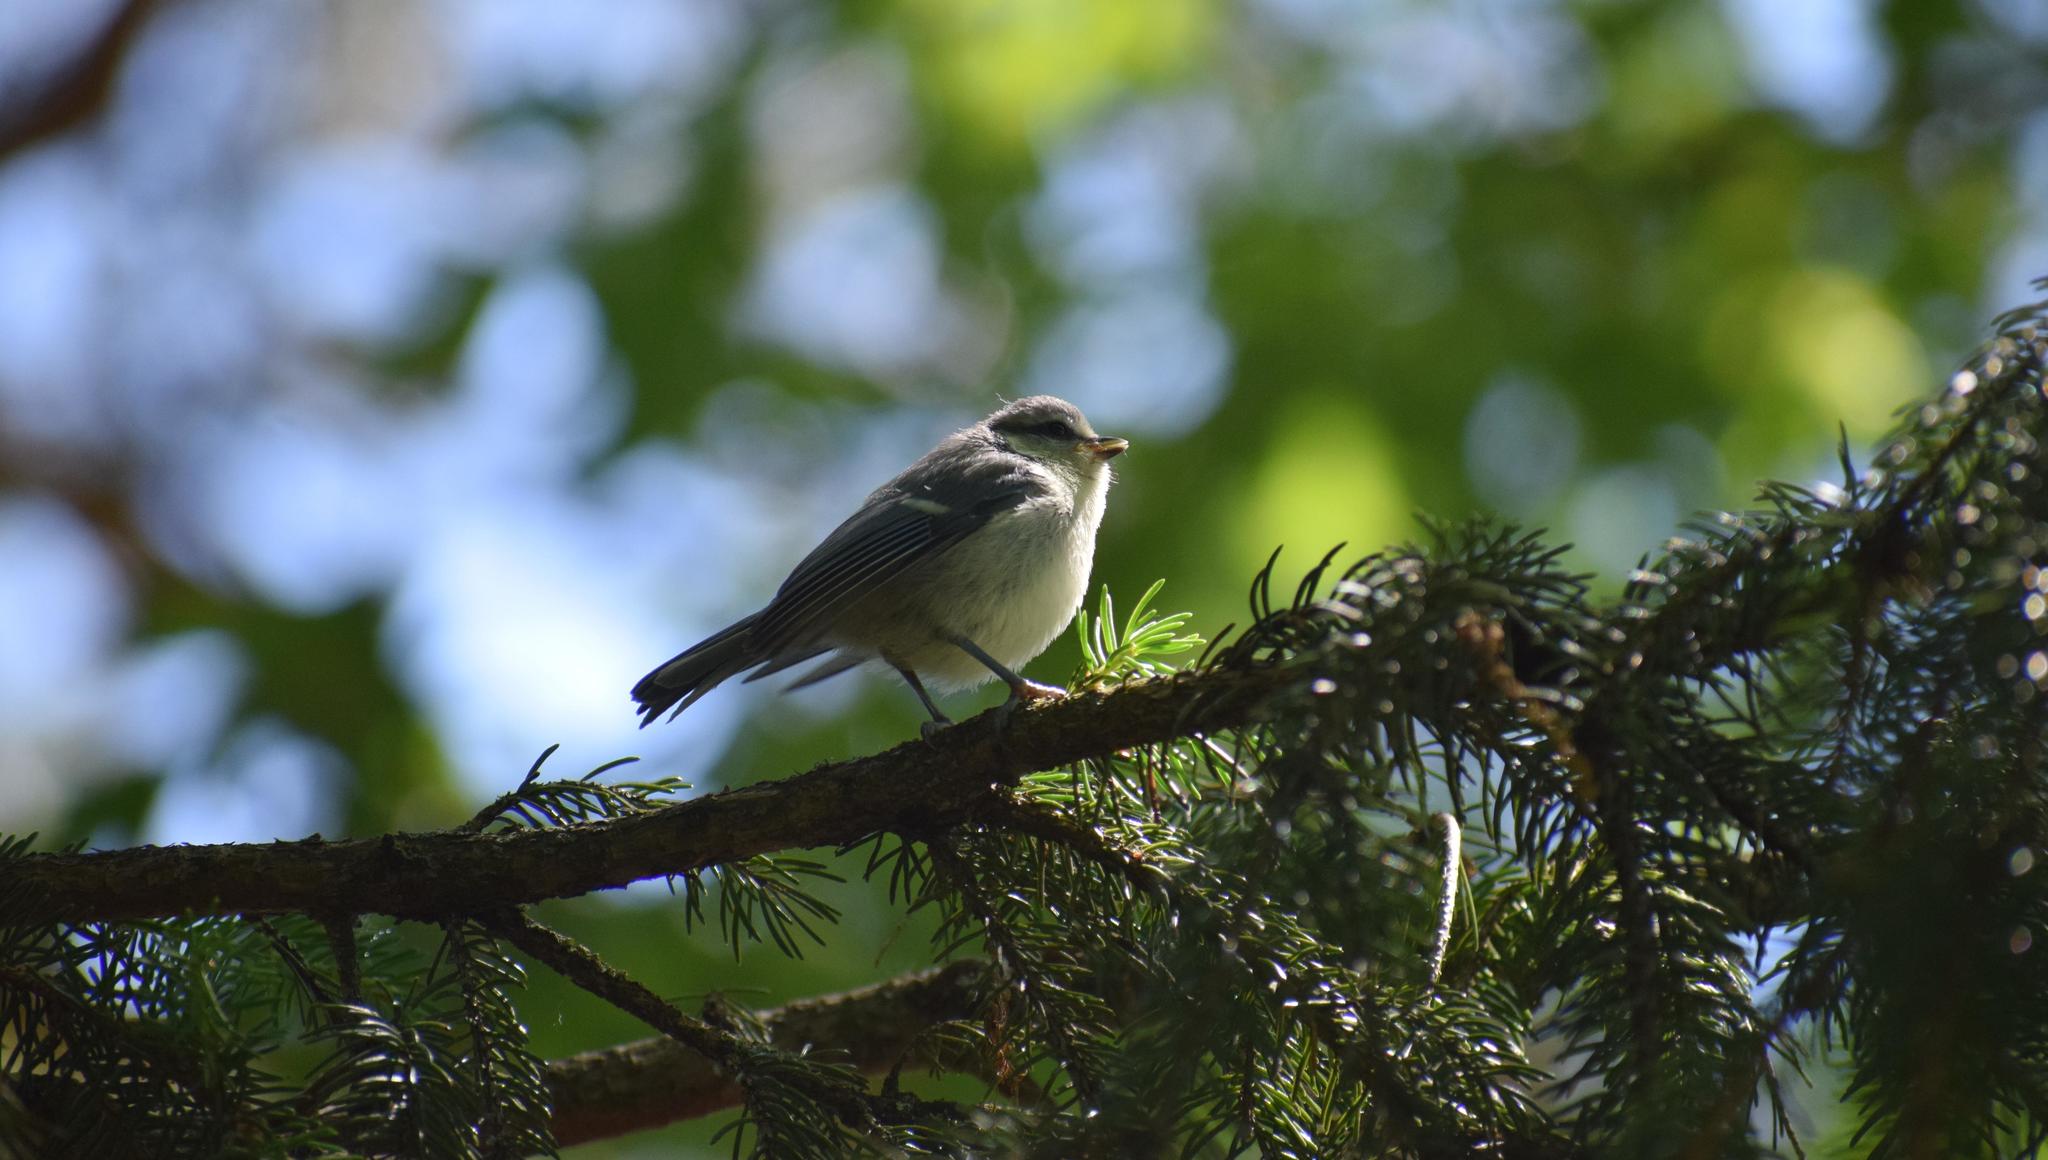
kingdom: Animalia
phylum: Chordata
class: Aves
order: Passeriformes
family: Paridae
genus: Cyanistes
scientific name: Cyanistes caeruleus
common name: Eurasian blue tit
